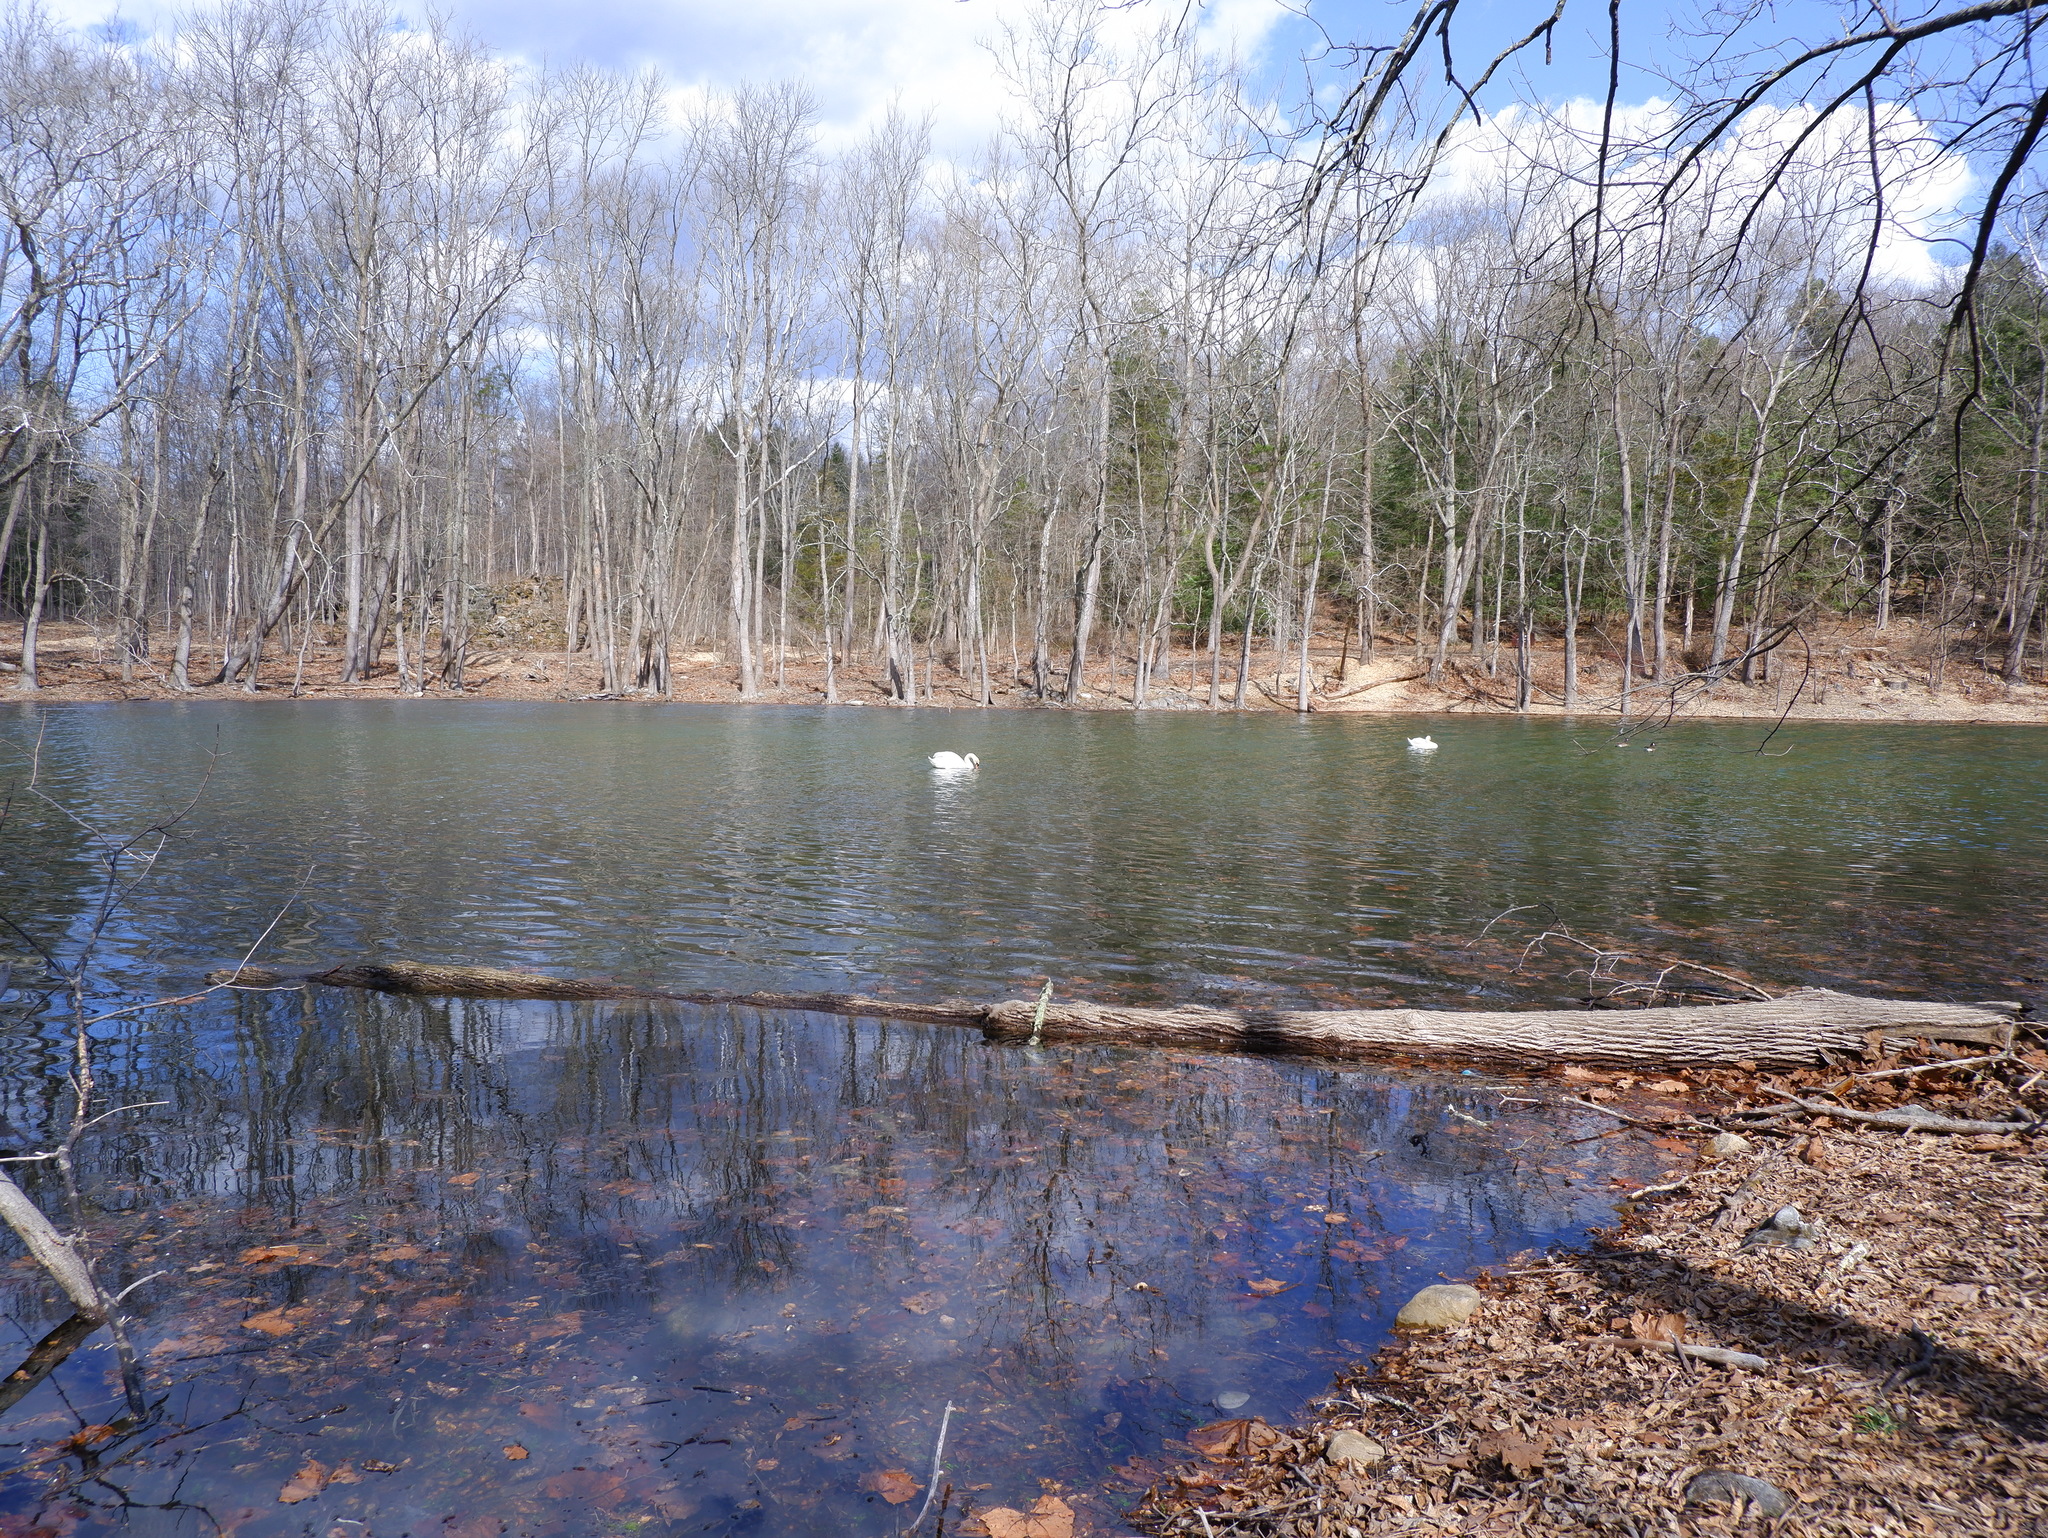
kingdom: Animalia
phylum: Chordata
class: Aves
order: Anseriformes
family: Anatidae
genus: Cygnus
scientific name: Cygnus olor
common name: Mute swan
